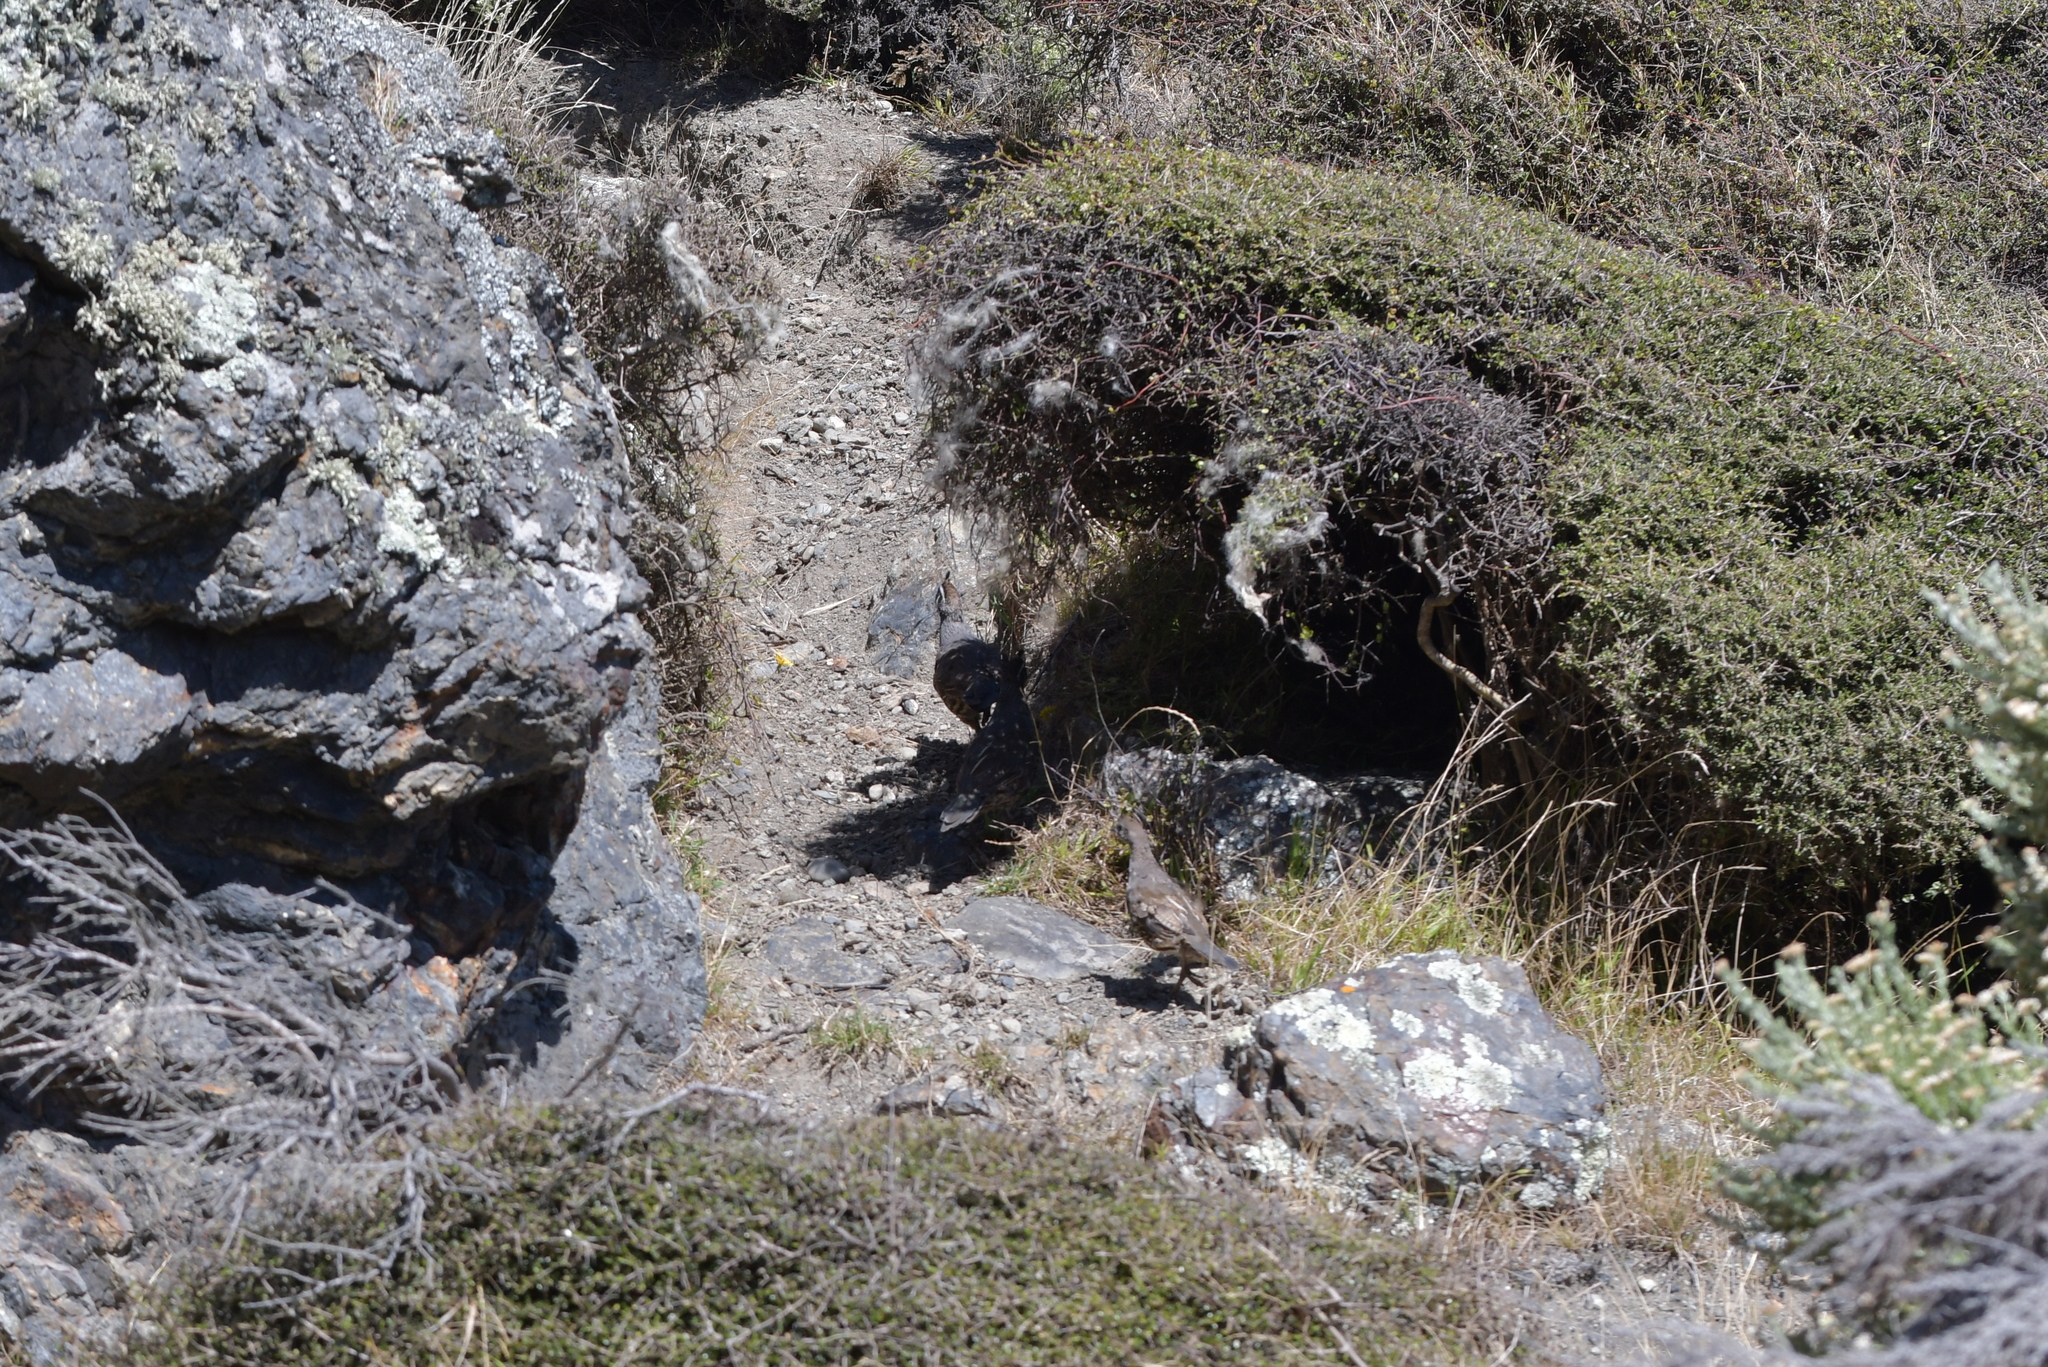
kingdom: Animalia
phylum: Chordata
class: Aves
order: Galliformes
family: Odontophoridae
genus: Callipepla
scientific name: Callipepla californica
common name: California quail
